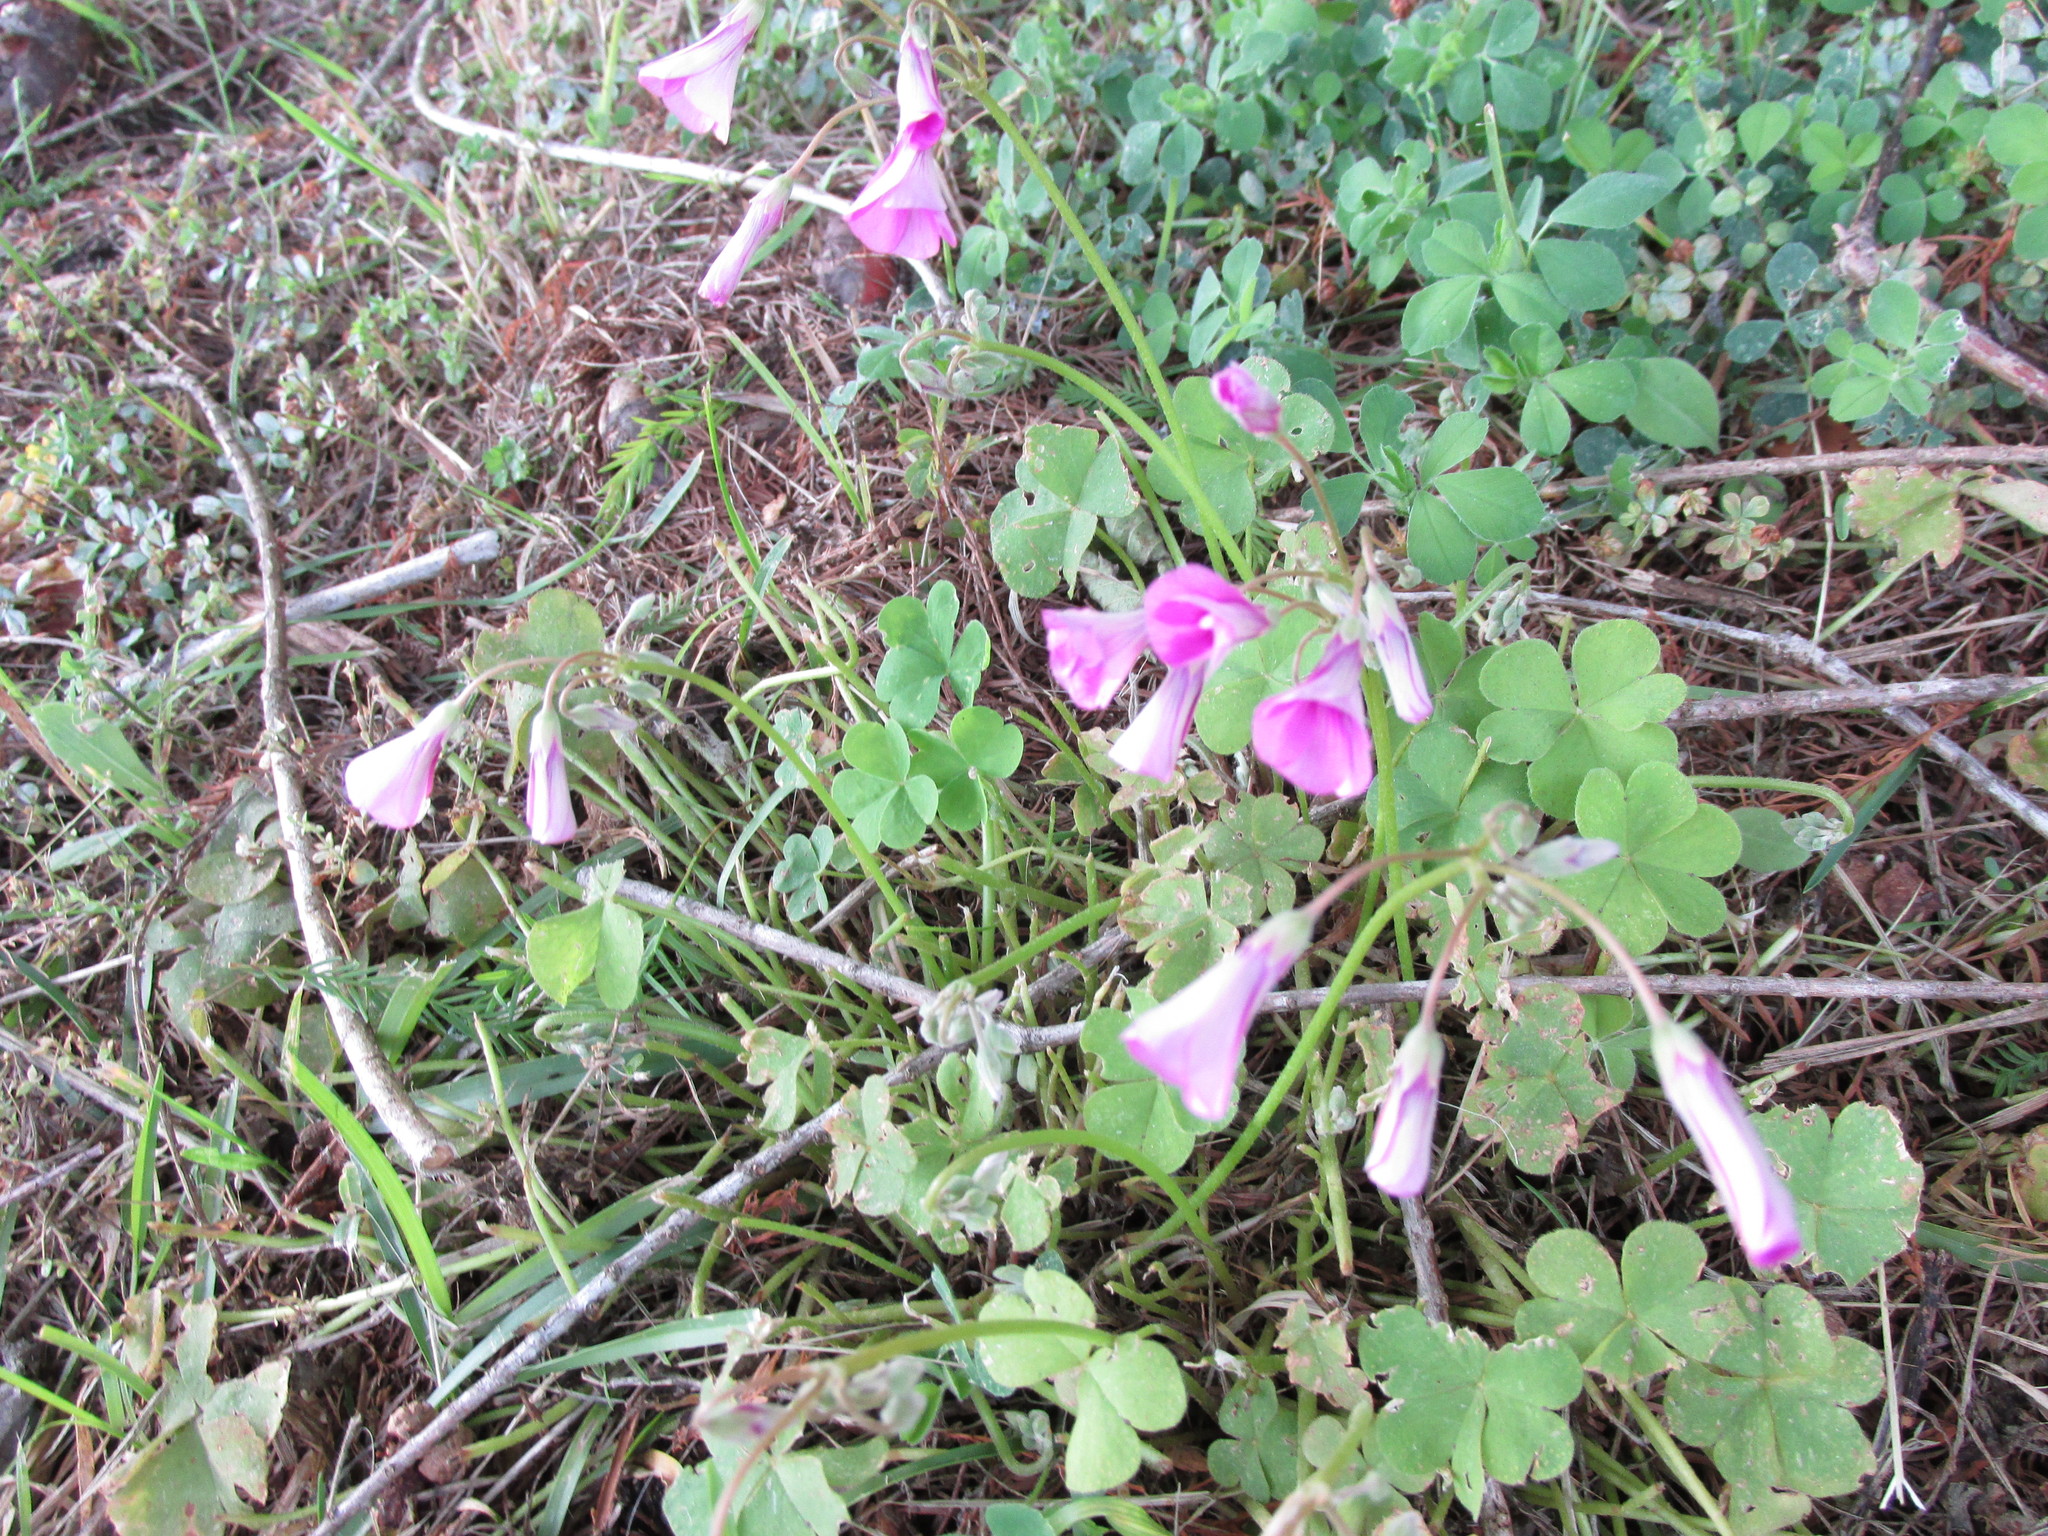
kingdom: Plantae
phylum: Tracheophyta
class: Magnoliopsida
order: Oxalidales
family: Oxalidaceae
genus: Oxalis
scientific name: Oxalis articulata
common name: Pink-sorrel
